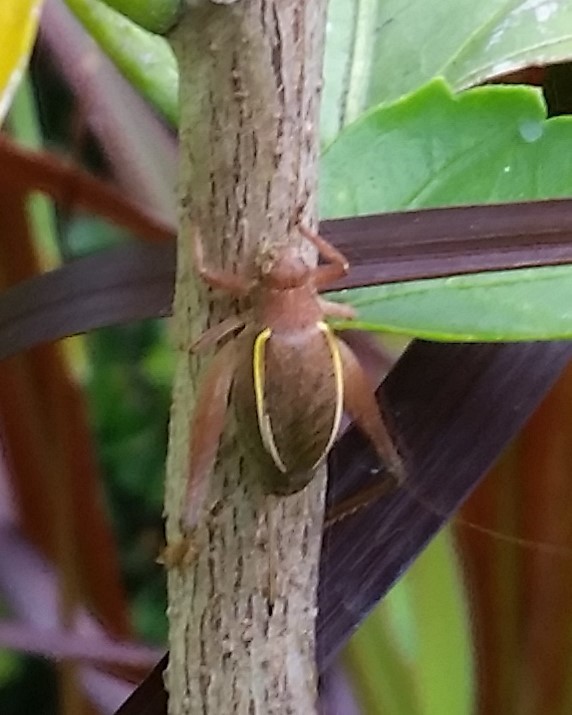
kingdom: Animalia
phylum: Arthropoda
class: Insecta
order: Orthoptera
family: Gryllidae
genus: Hapithus
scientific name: Hapithus agitator
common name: Restless bush cricket
